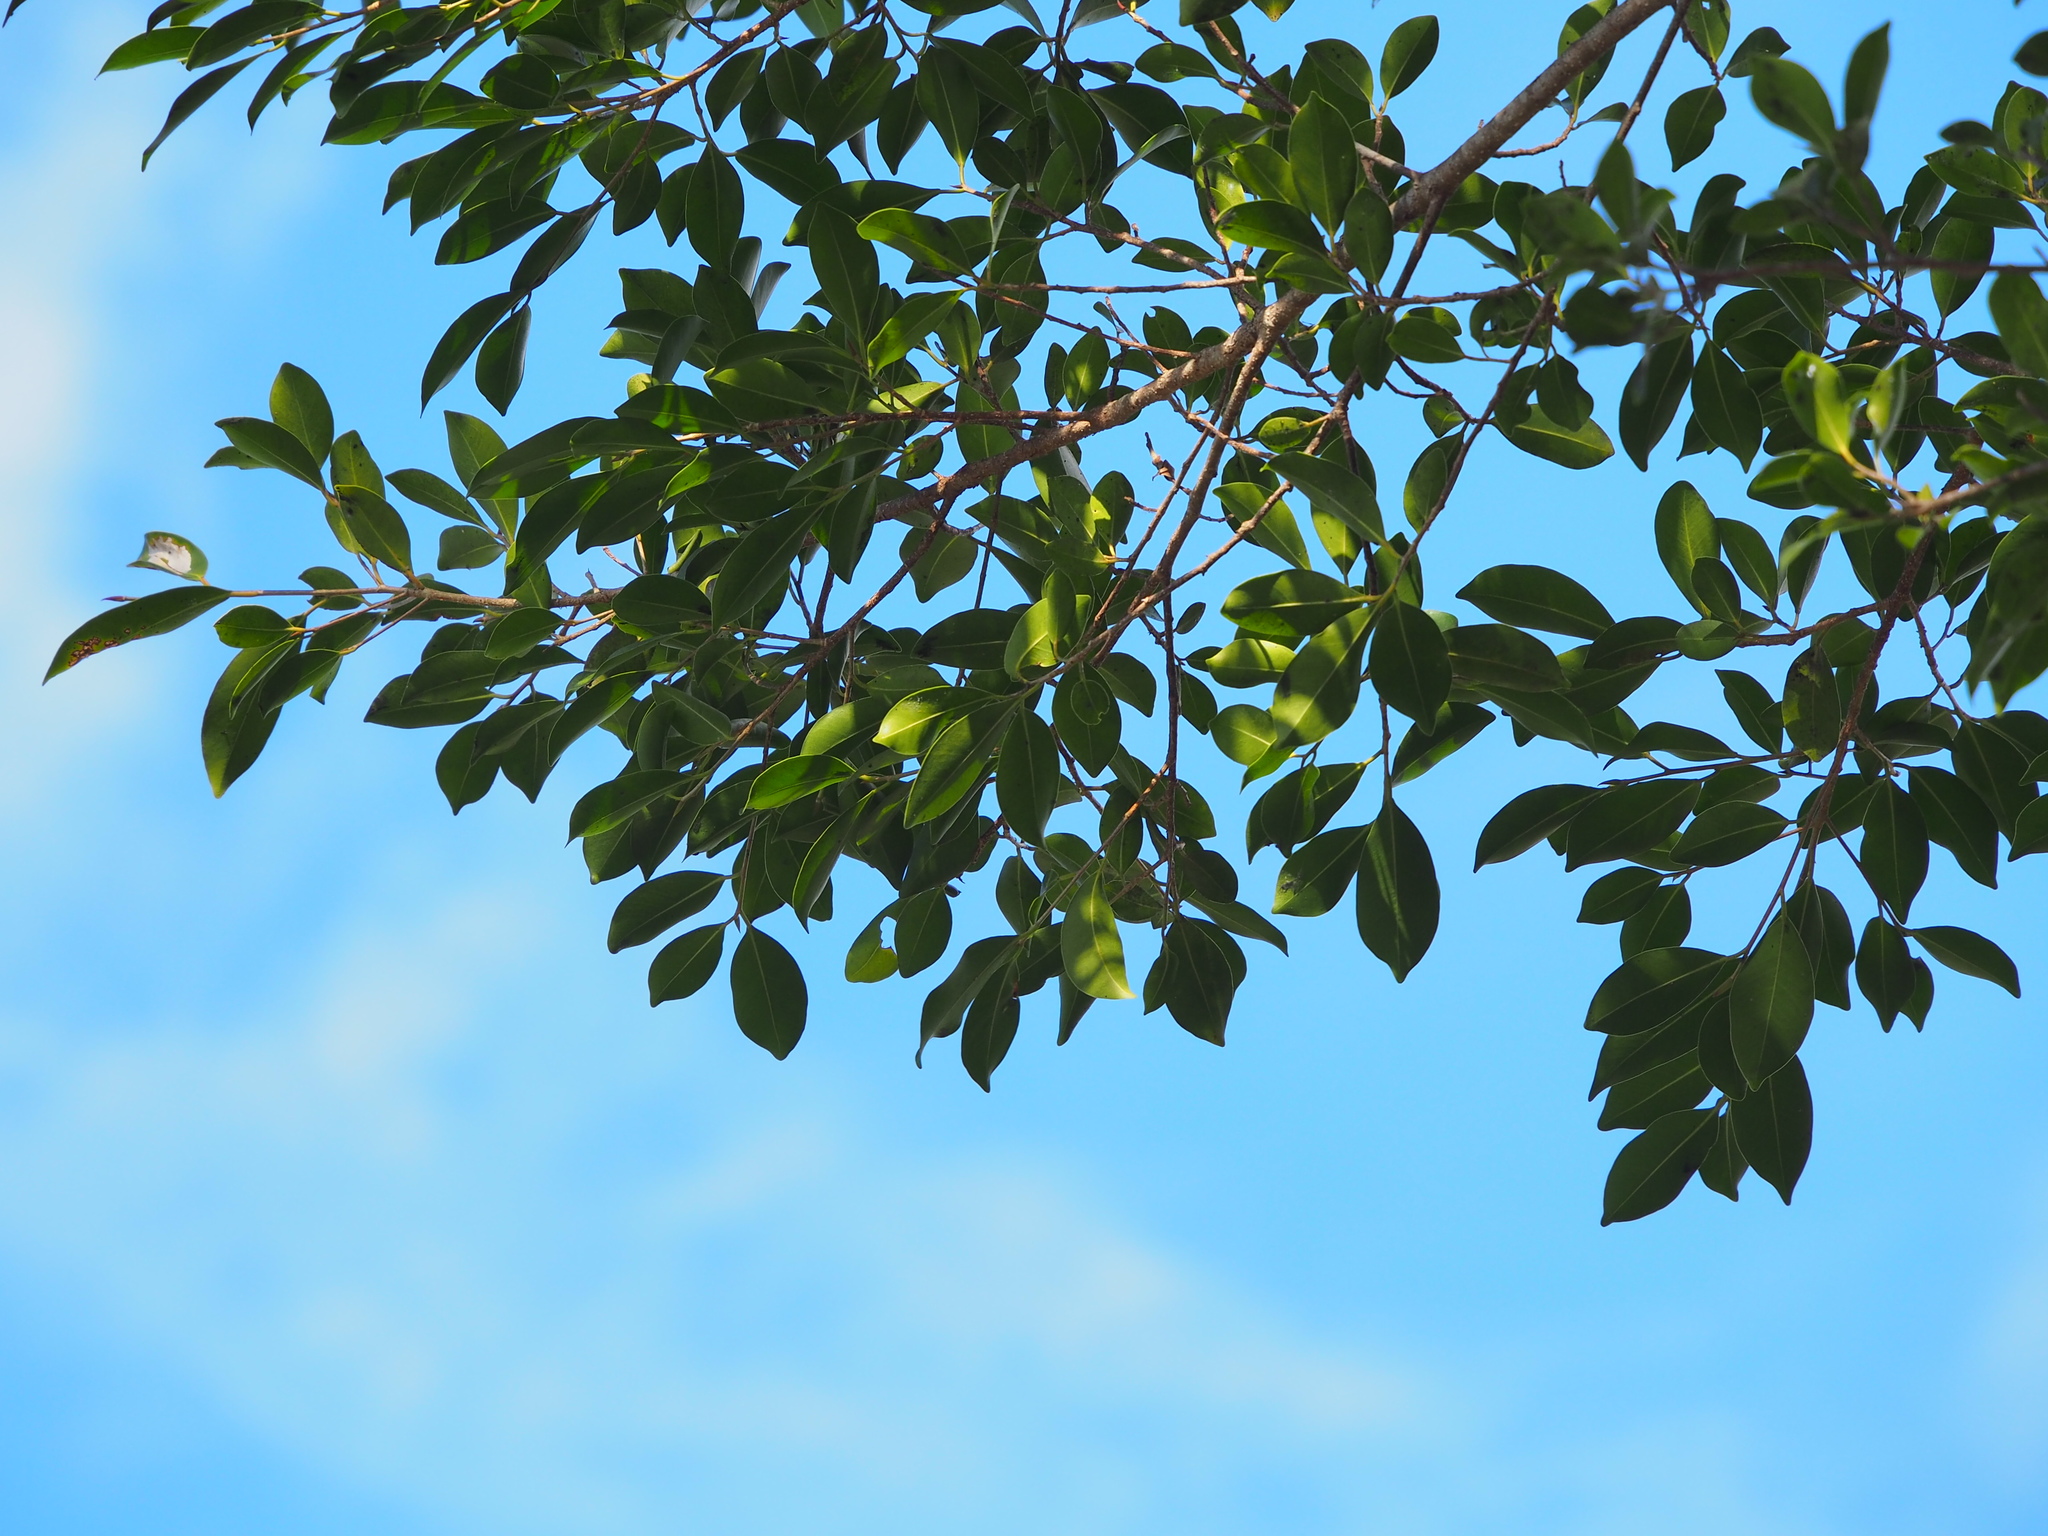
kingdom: Plantae
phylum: Tracheophyta
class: Magnoliopsida
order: Rosales
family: Moraceae
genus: Ficus
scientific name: Ficus microcarpa
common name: Chinese banyan
